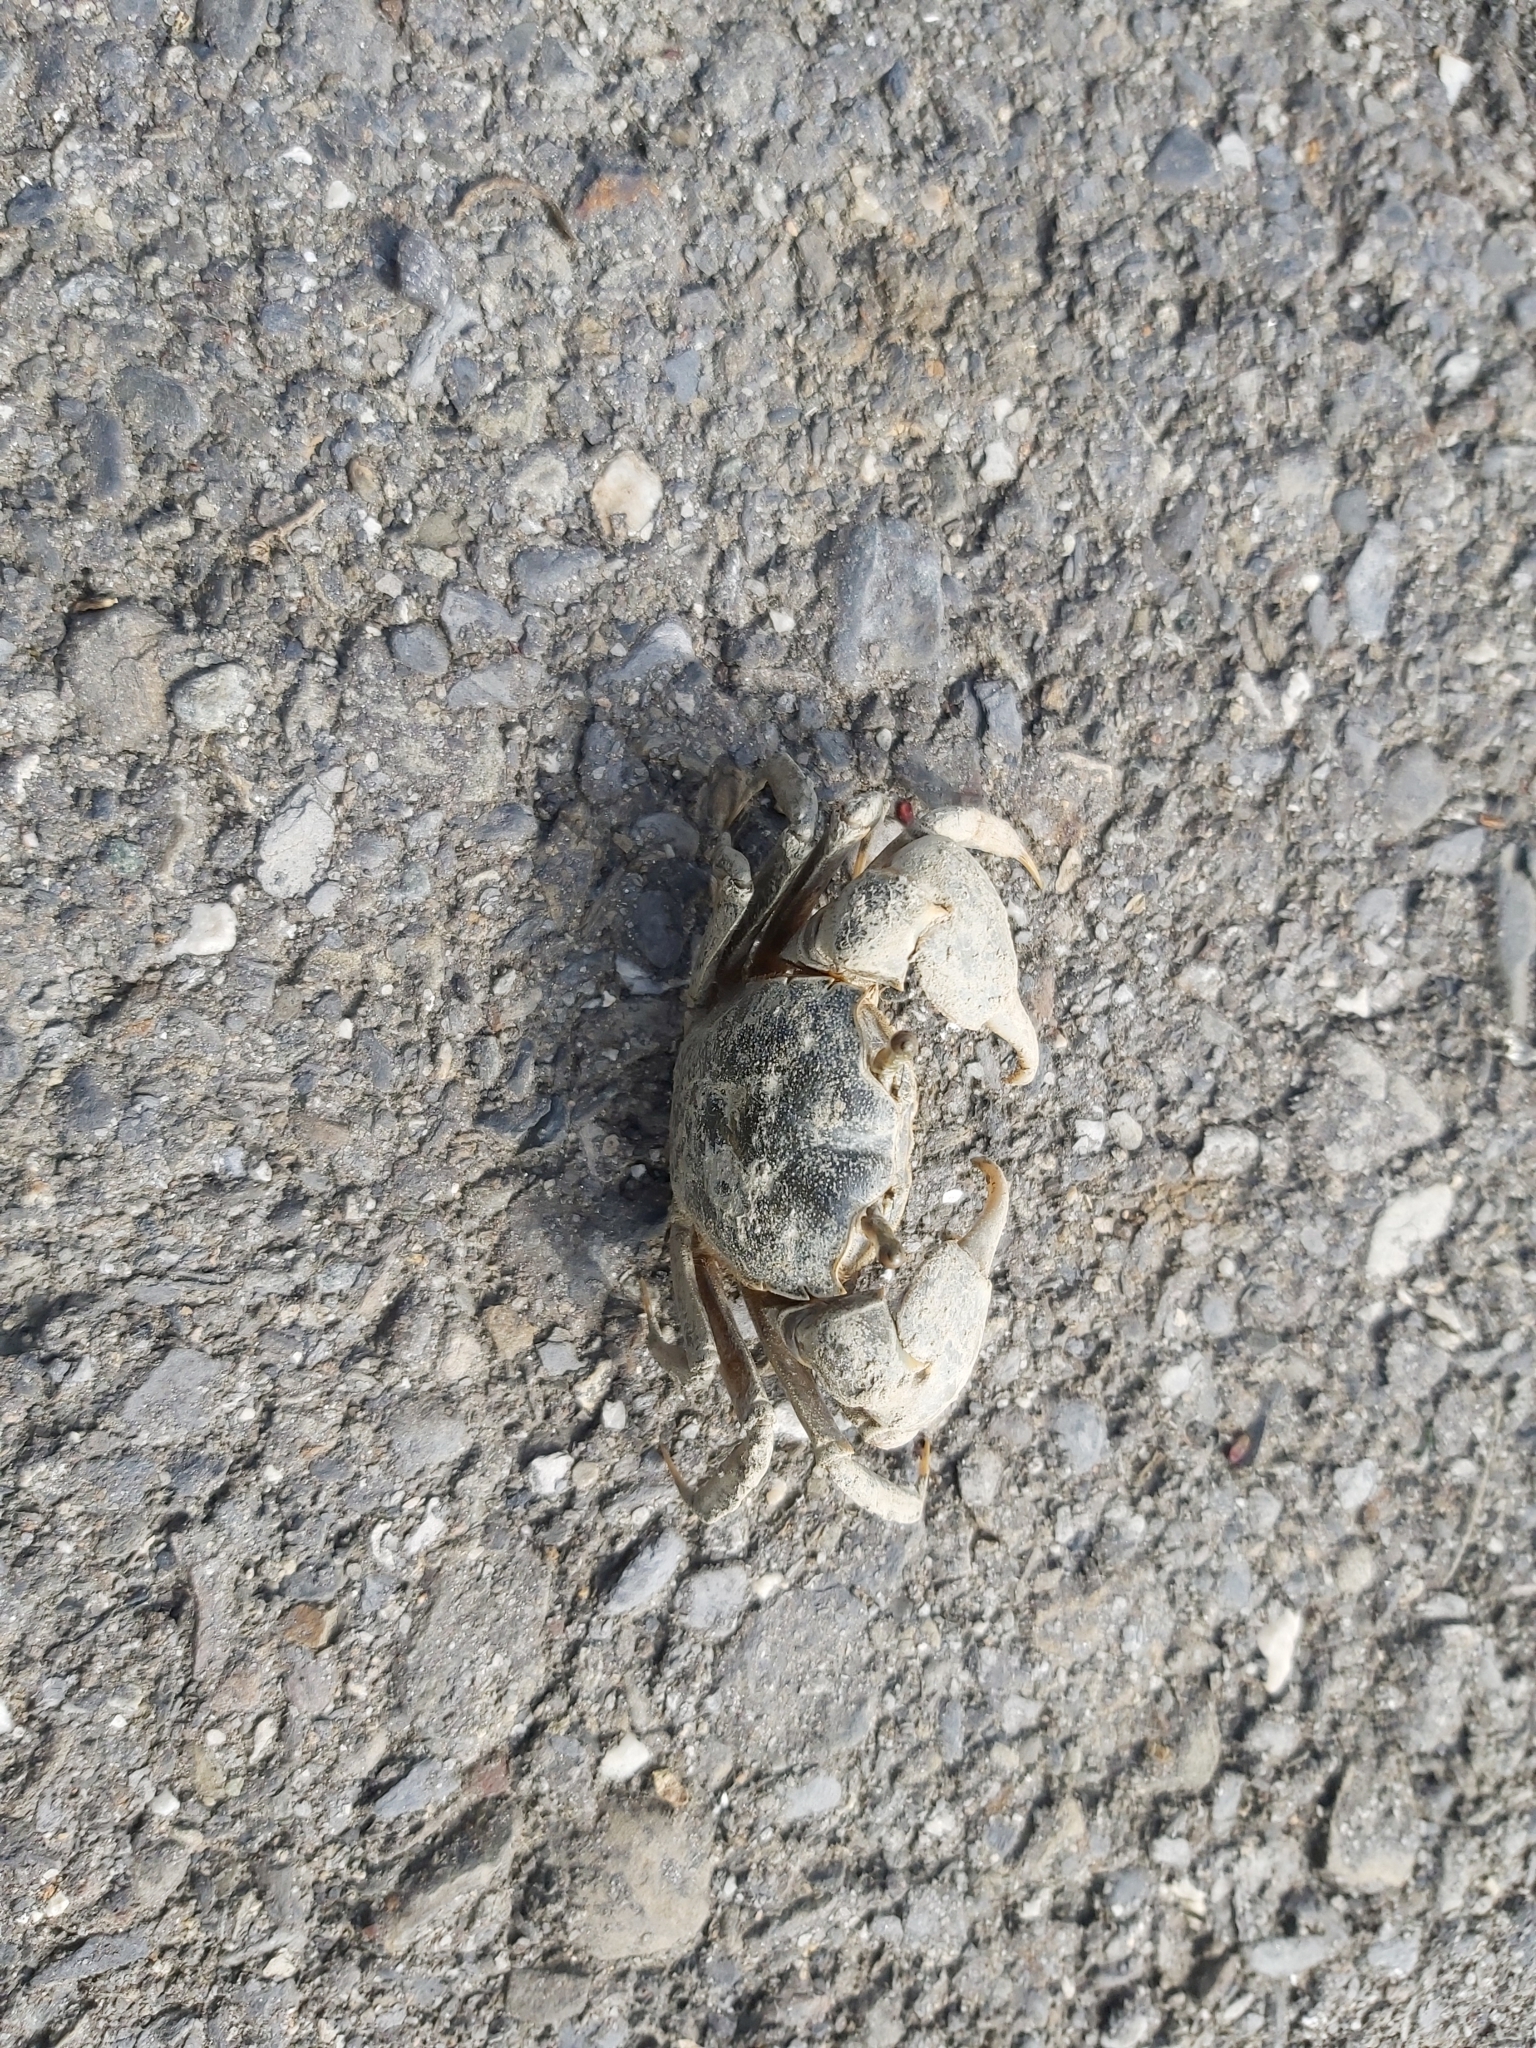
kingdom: Animalia
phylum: Arthropoda
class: Malacostraca
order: Decapoda
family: Varunidae
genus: Helice
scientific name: Helice formosensis
